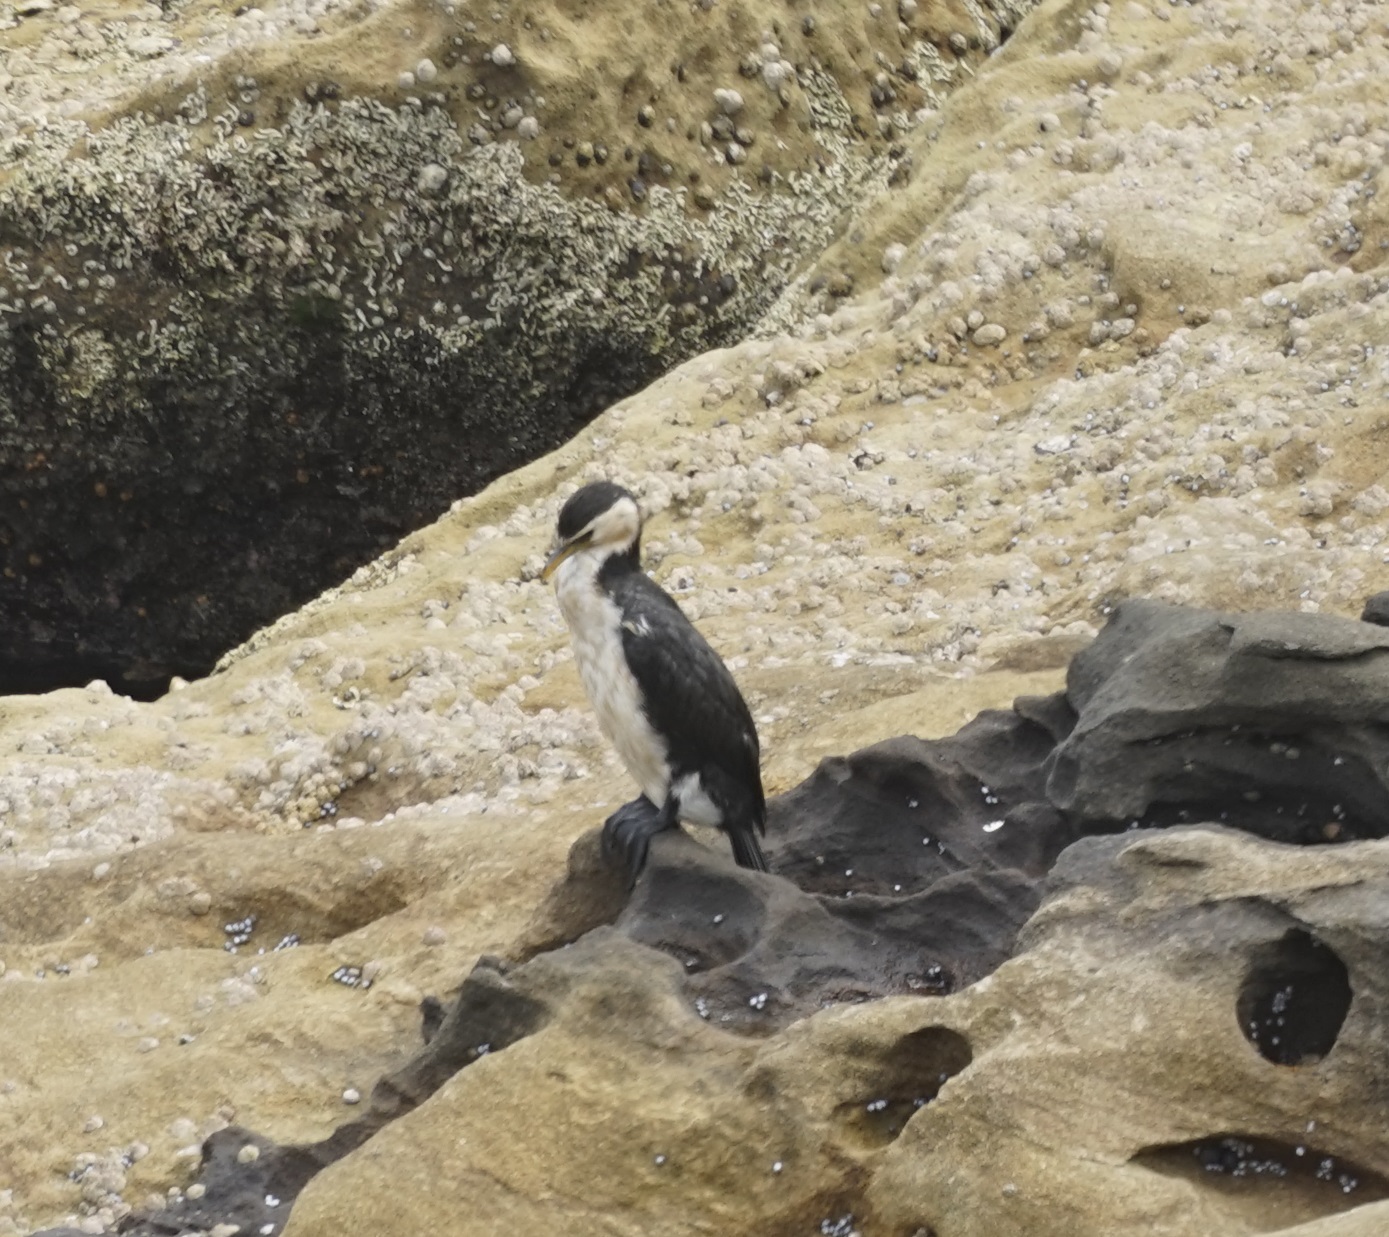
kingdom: Animalia
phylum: Chordata
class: Aves
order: Suliformes
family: Phalacrocoracidae
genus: Microcarbo
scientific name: Microcarbo melanoleucos
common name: Little pied cormorant
